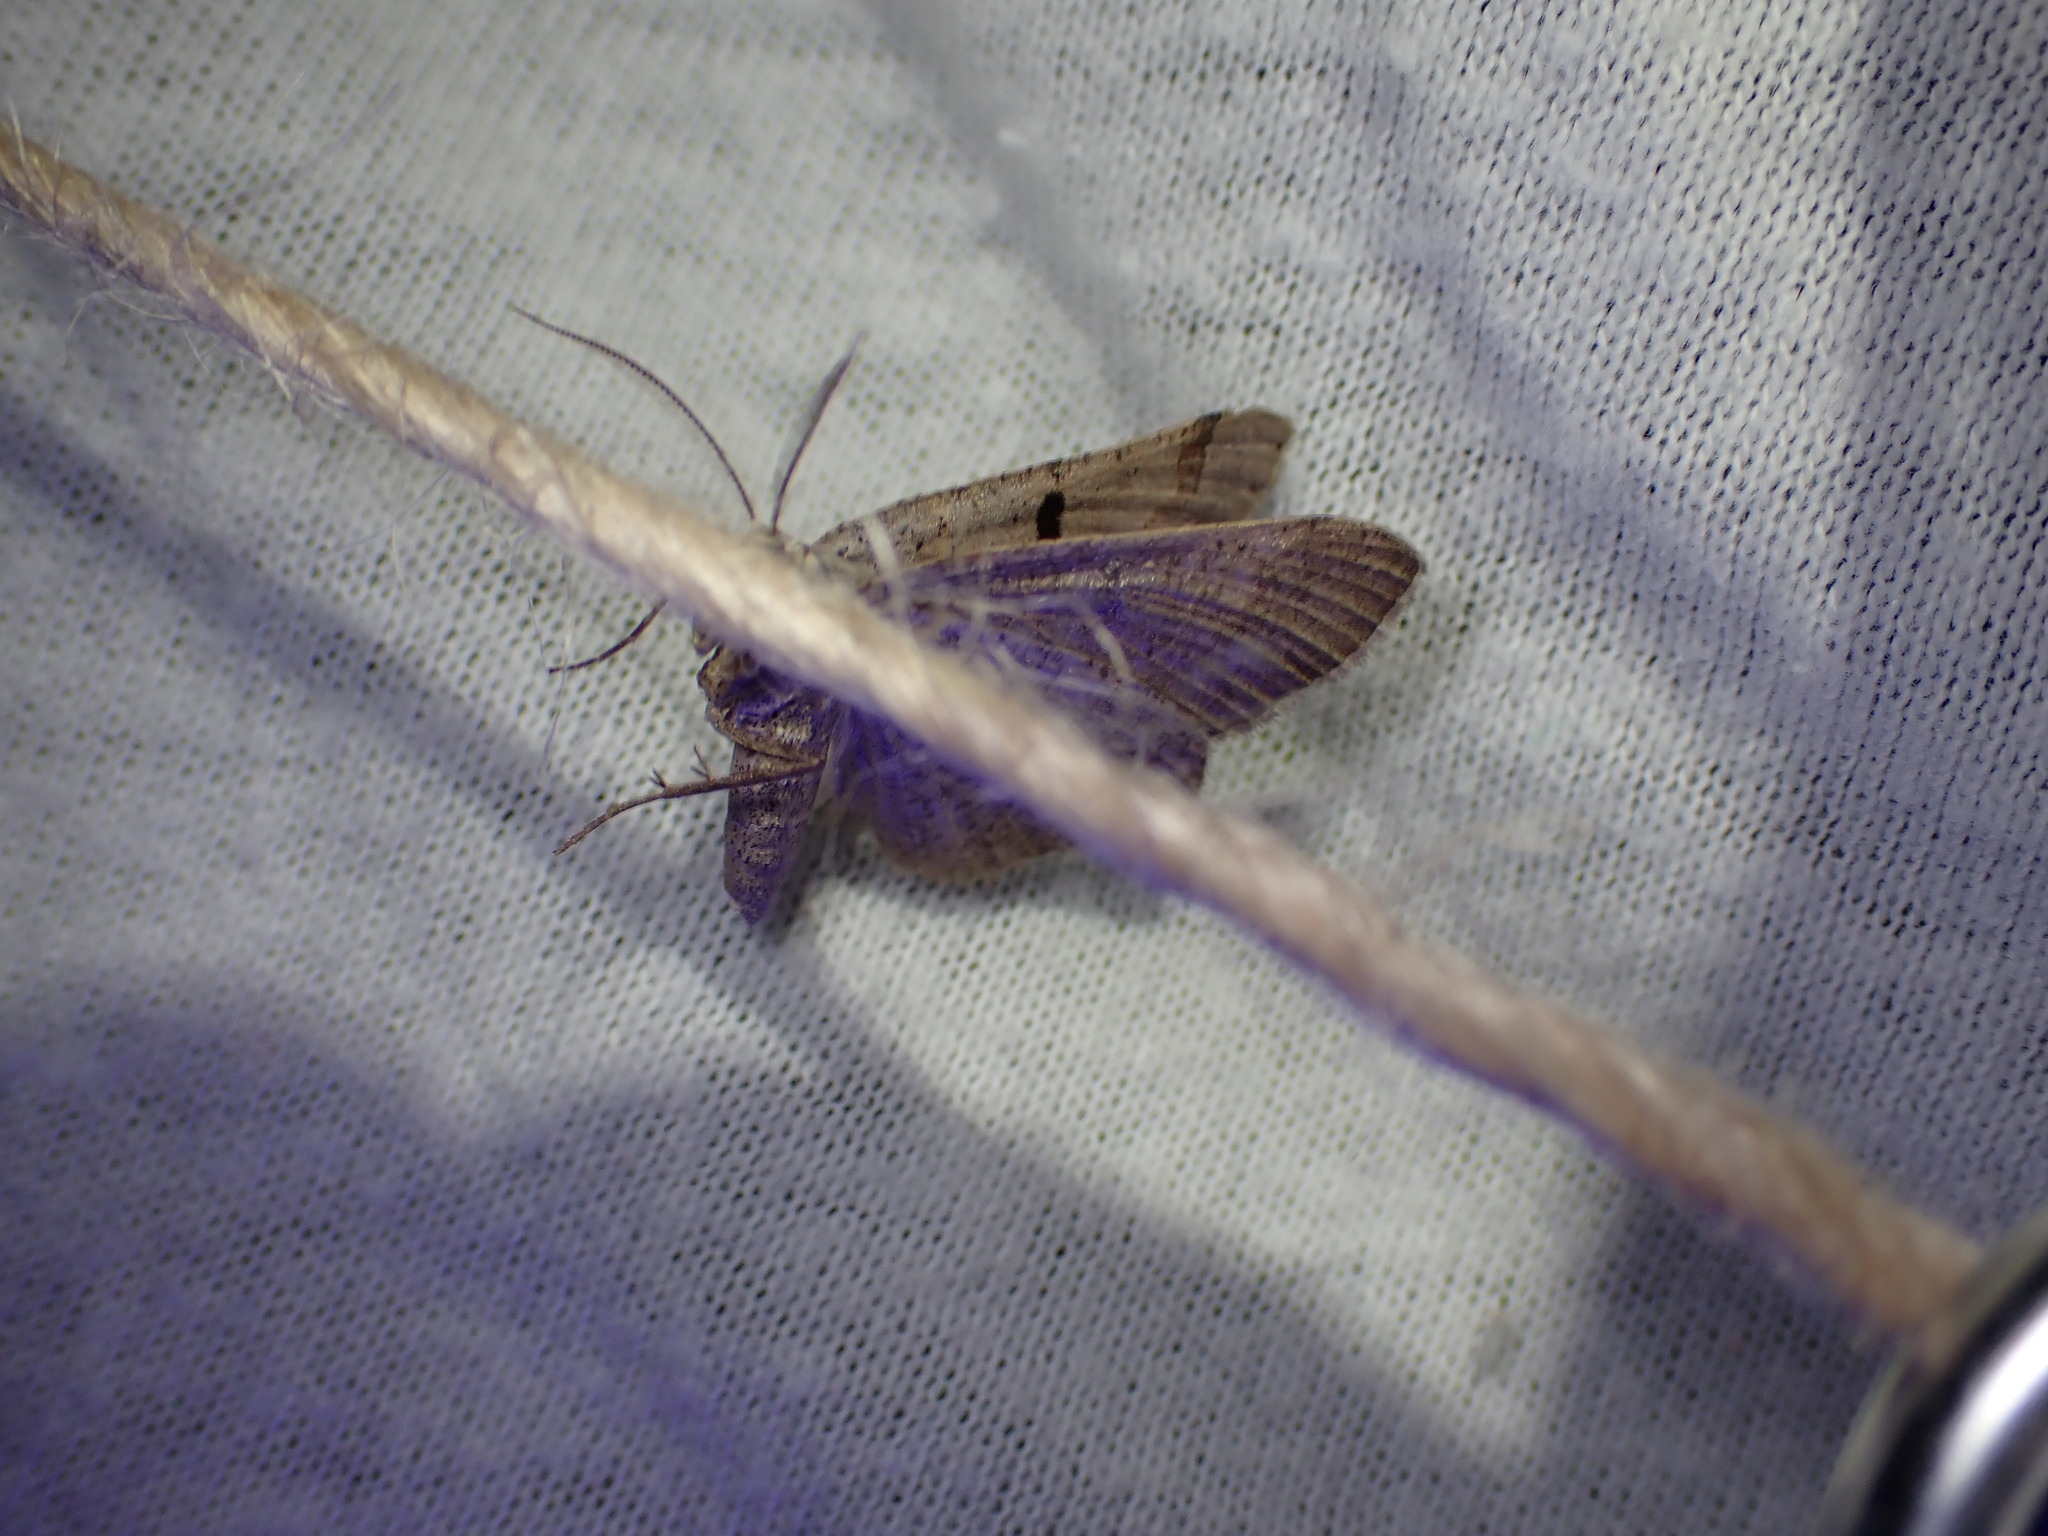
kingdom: Animalia
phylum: Arthropoda
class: Insecta
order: Lepidoptera
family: Geometridae
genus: Itame
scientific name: Itame vincularia
